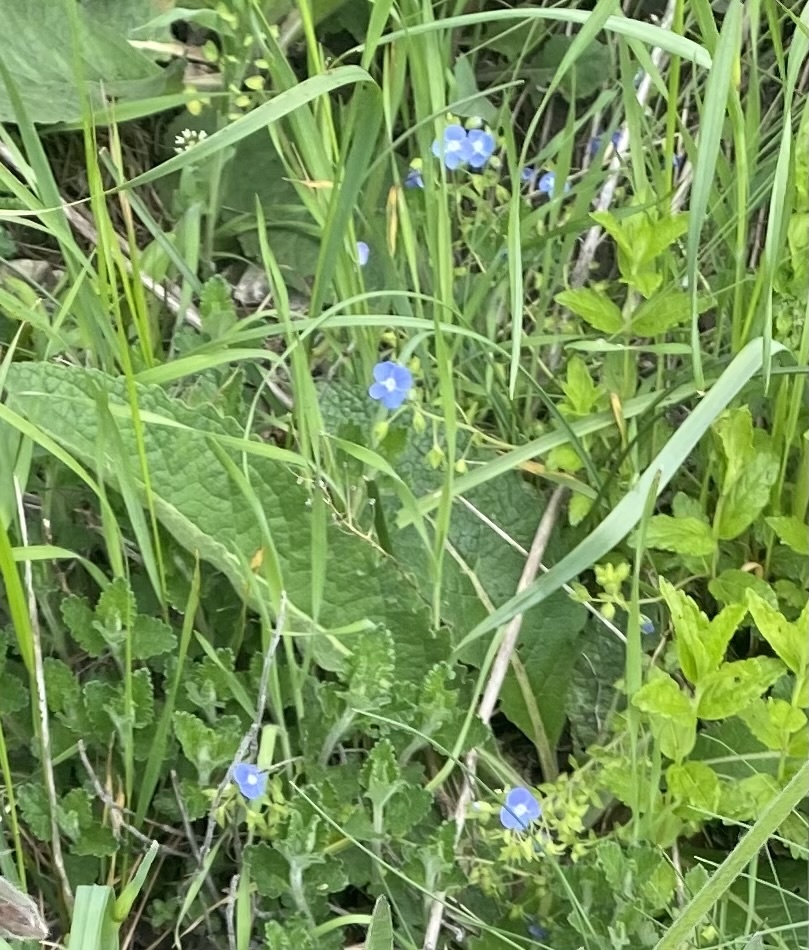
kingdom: Plantae
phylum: Tracheophyta
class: Magnoliopsida
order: Lamiales
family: Plantaginaceae
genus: Veronica
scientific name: Veronica
